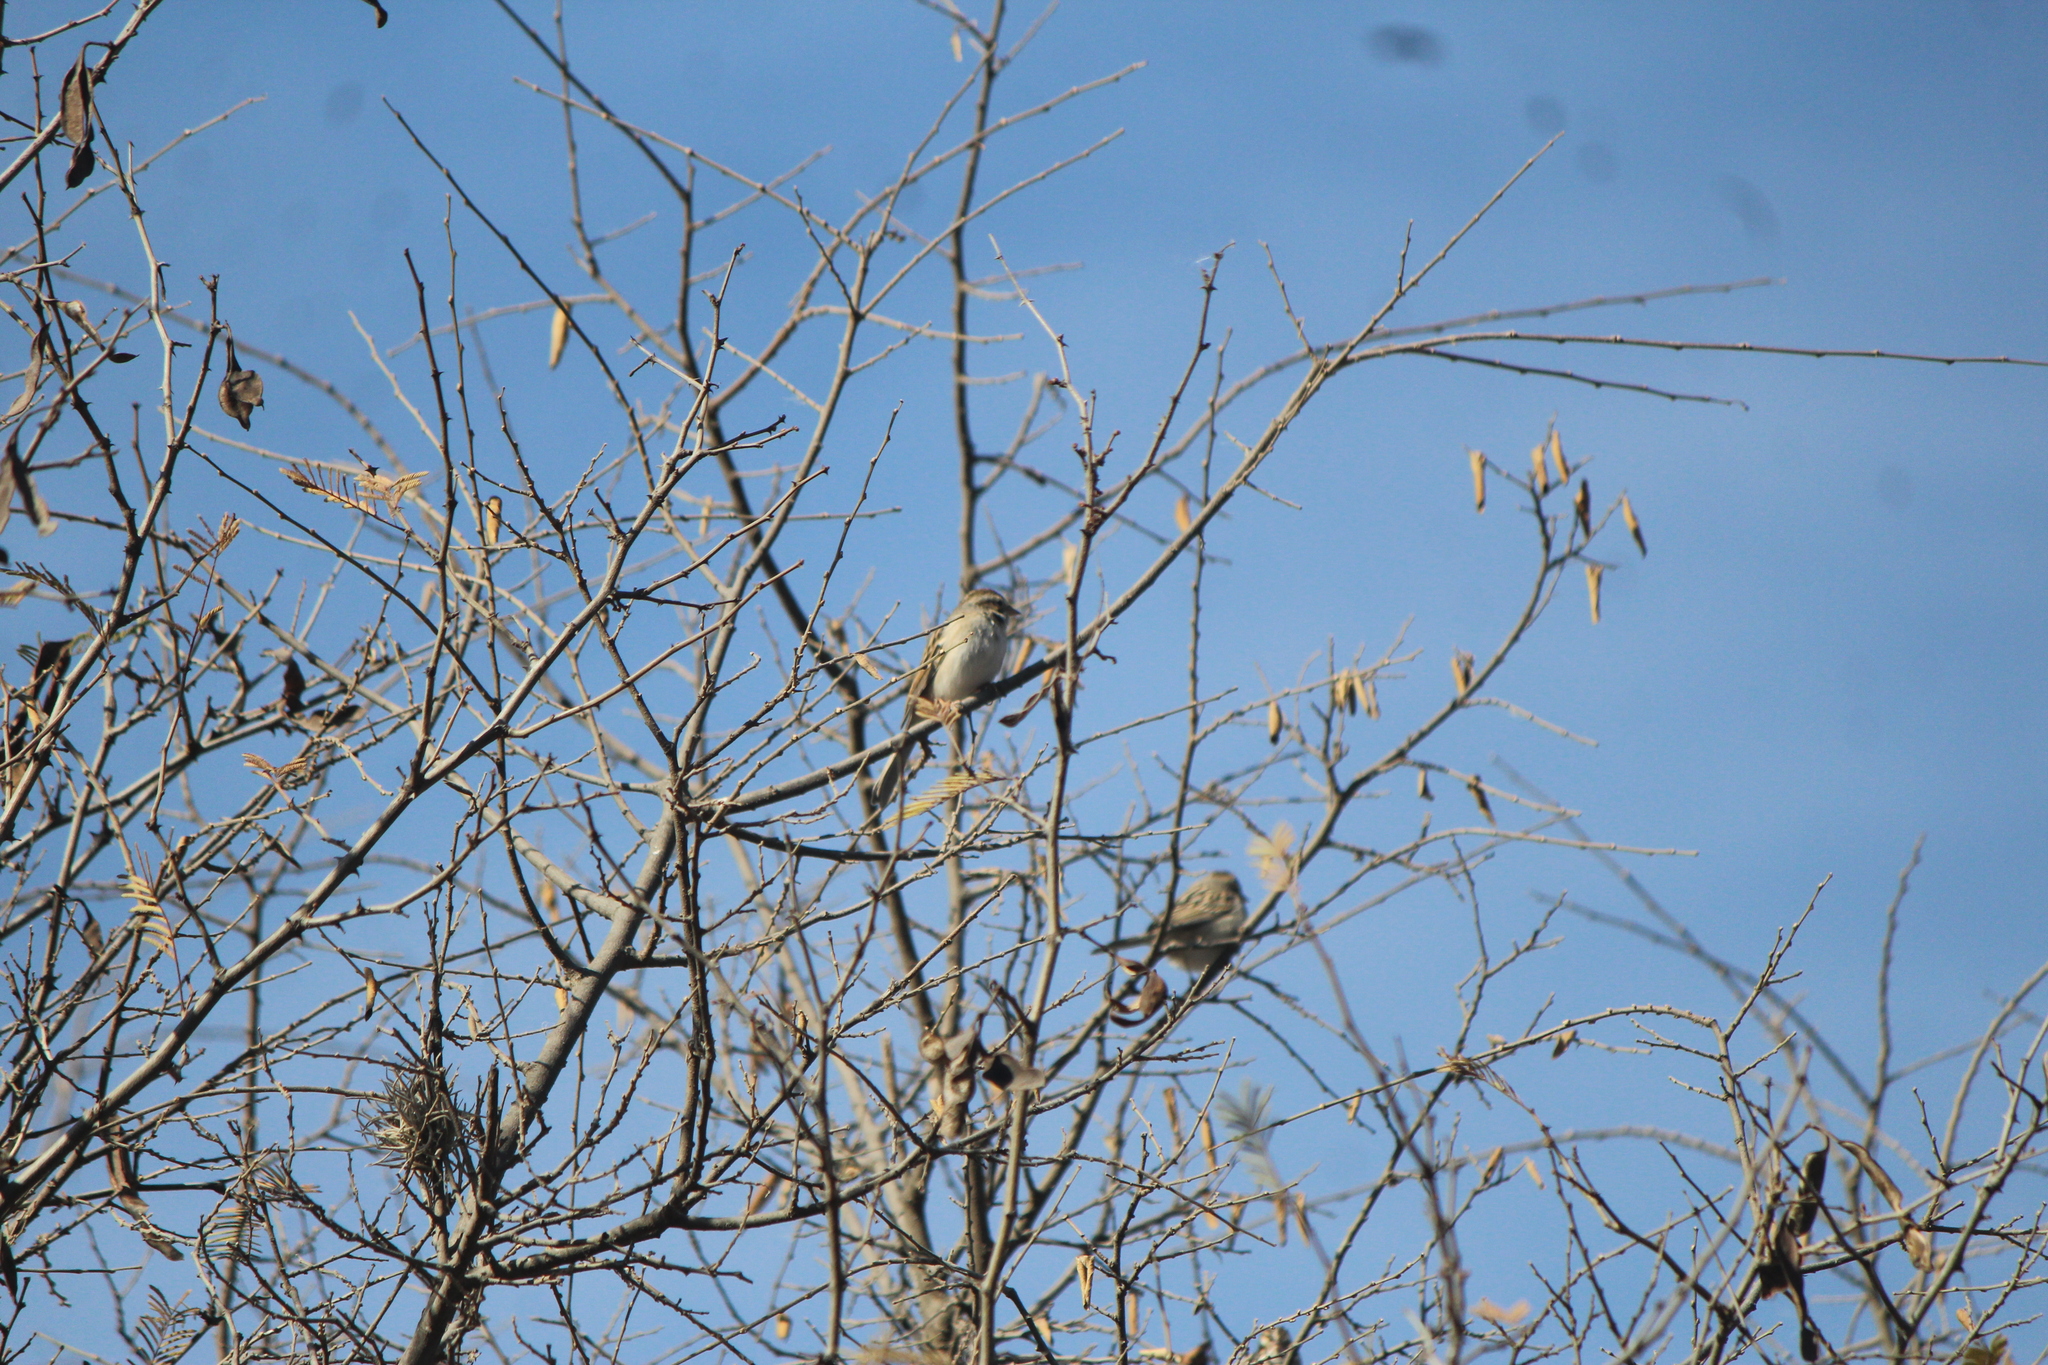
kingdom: Animalia
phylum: Chordata
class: Aves
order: Passeriformes
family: Passerellidae
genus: Spizella
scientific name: Spizella pallida
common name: Clay-colored sparrow
